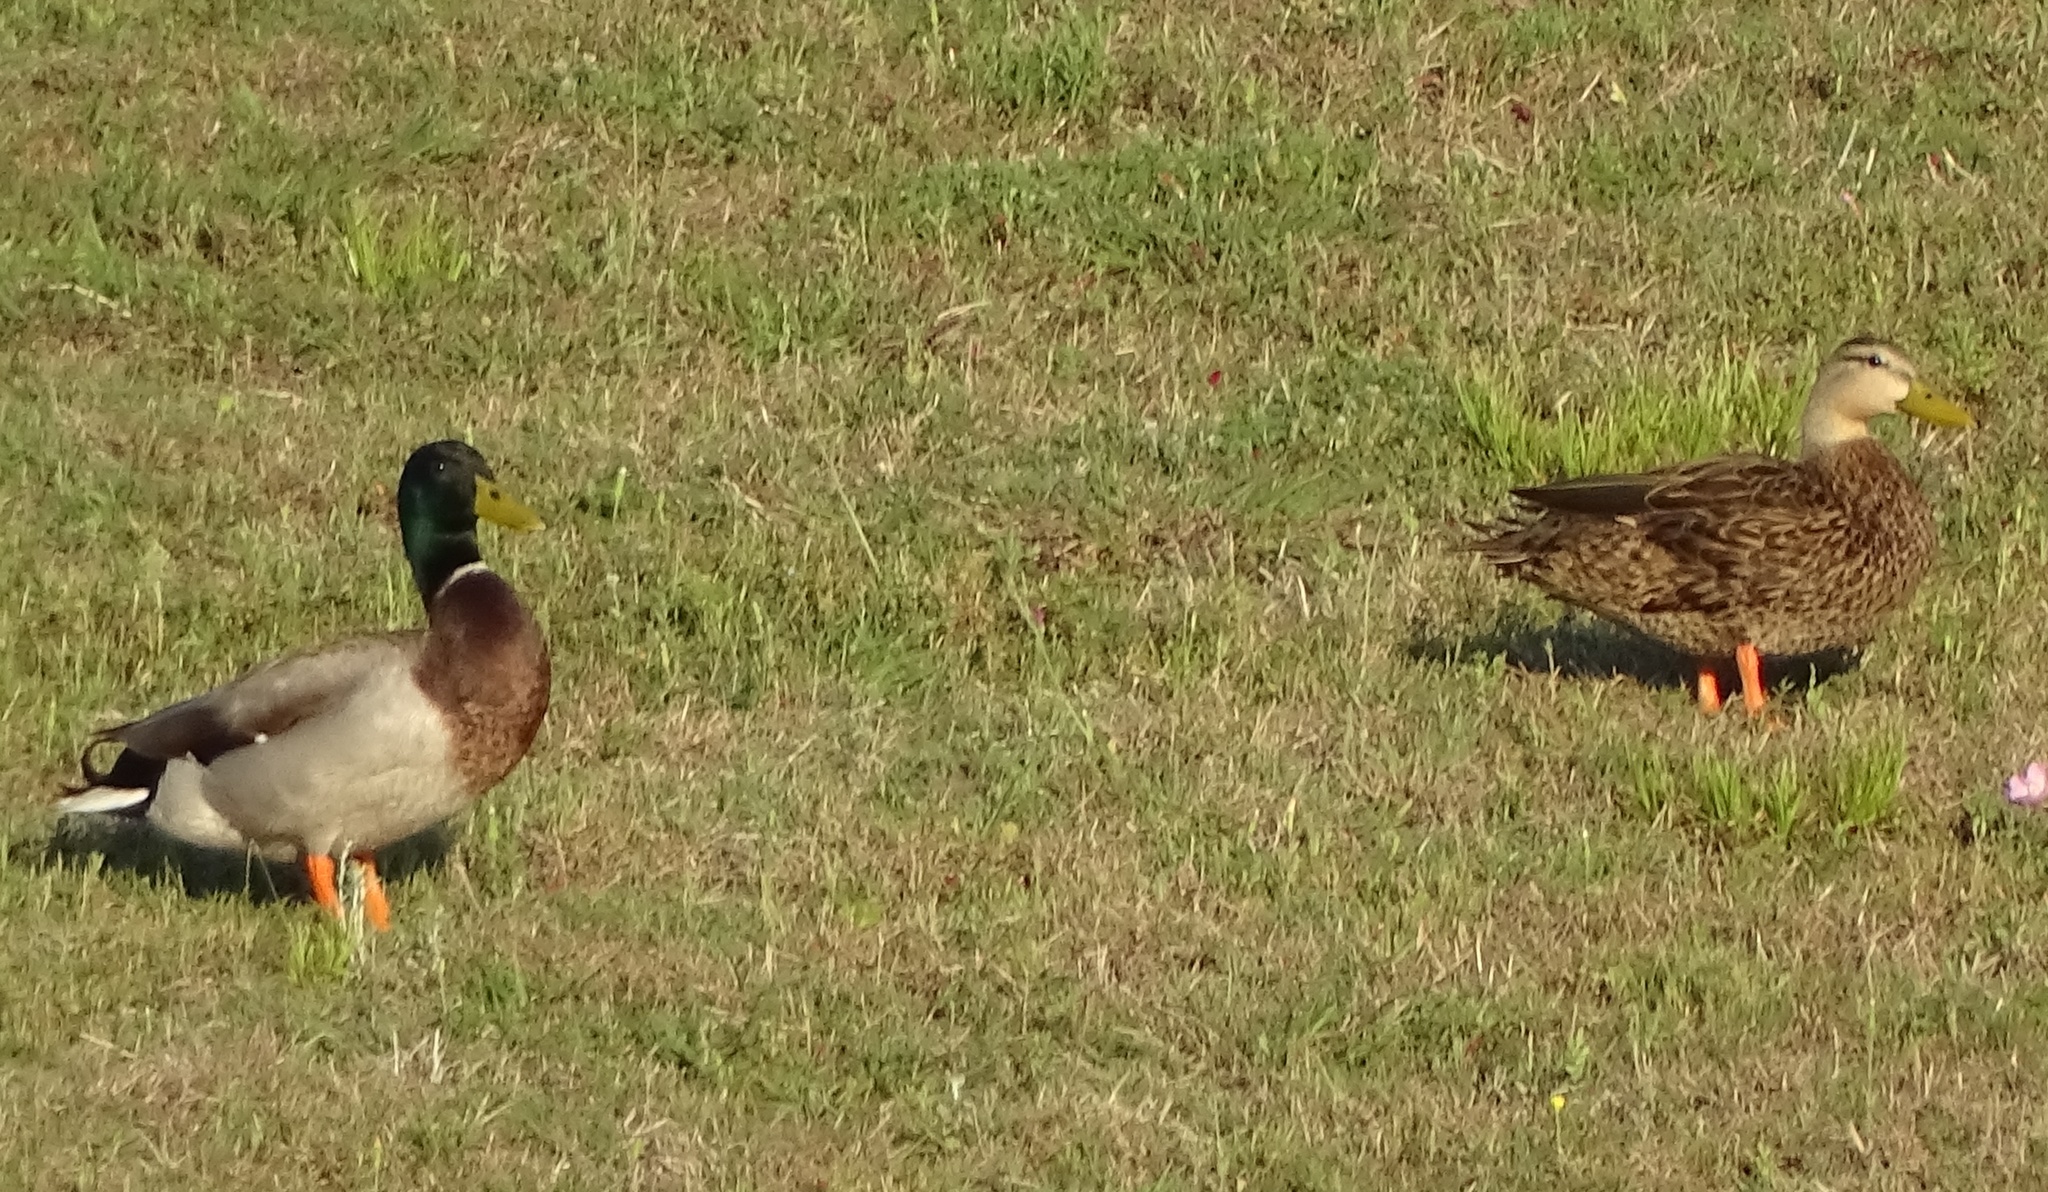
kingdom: Animalia
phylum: Chordata
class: Aves
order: Anseriformes
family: Anatidae
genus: Anas
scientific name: Anas platyrhynchos
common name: Mallard
